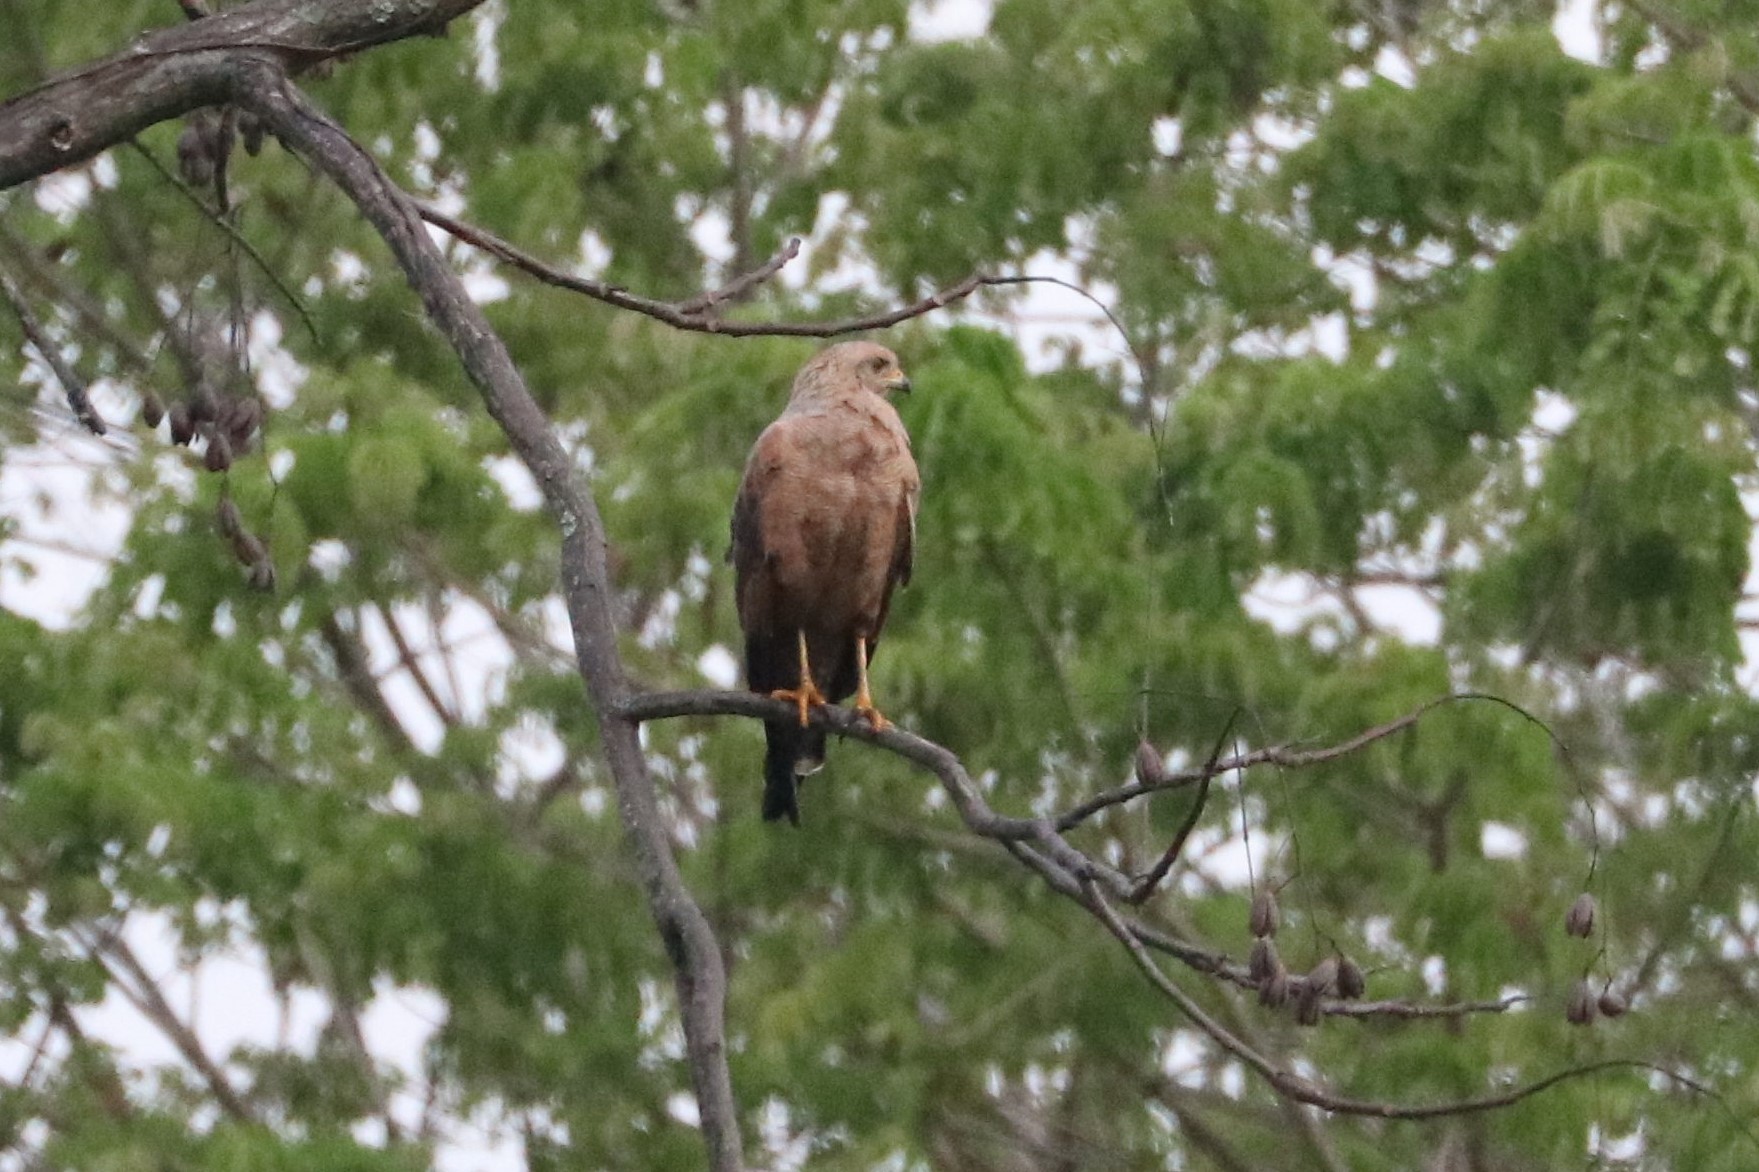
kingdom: Animalia
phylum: Chordata
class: Aves
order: Accipitriformes
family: Accipitridae
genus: Buteogallus
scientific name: Buteogallus meridionalis
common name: Savanna hawk
